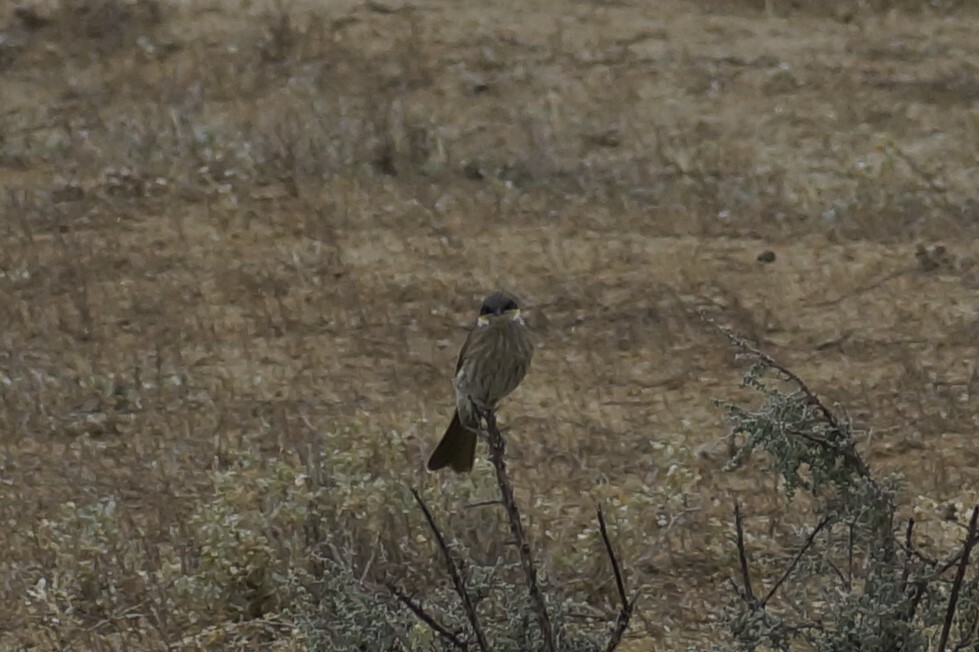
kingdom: Animalia
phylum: Chordata
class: Aves
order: Passeriformes
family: Meliphagidae
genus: Gavicalis
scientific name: Gavicalis virescens
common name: Singing honeyeater
